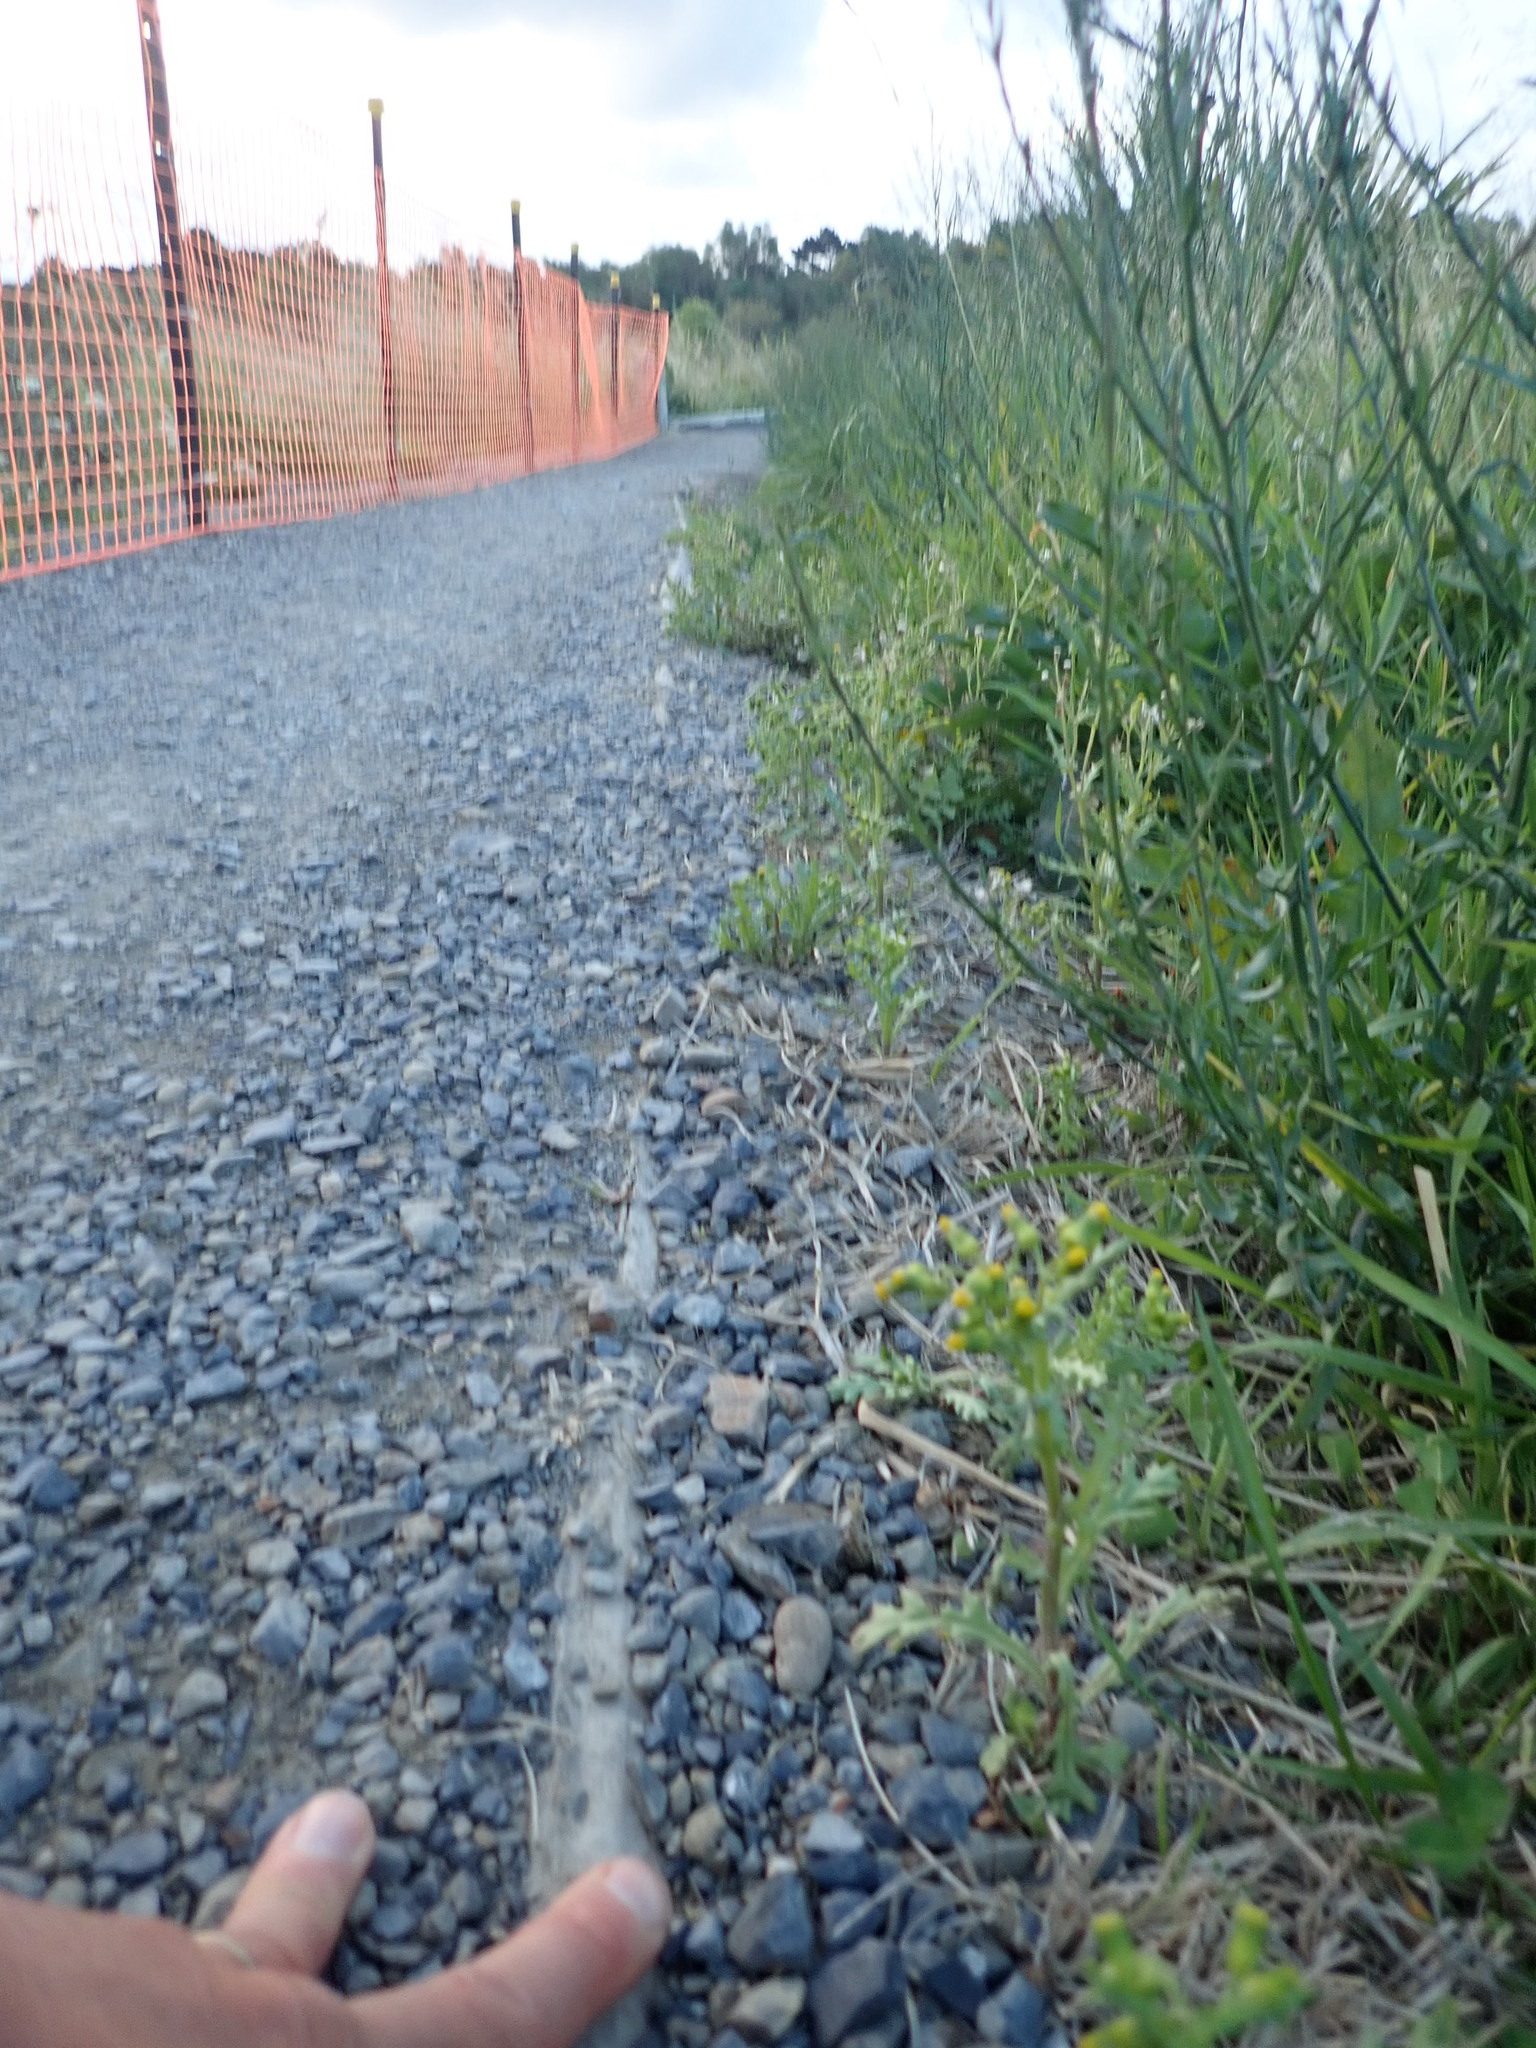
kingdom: Plantae
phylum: Tracheophyta
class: Magnoliopsida
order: Asterales
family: Asteraceae
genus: Senecio
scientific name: Senecio vulgaris
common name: Old-man-in-the-spring
